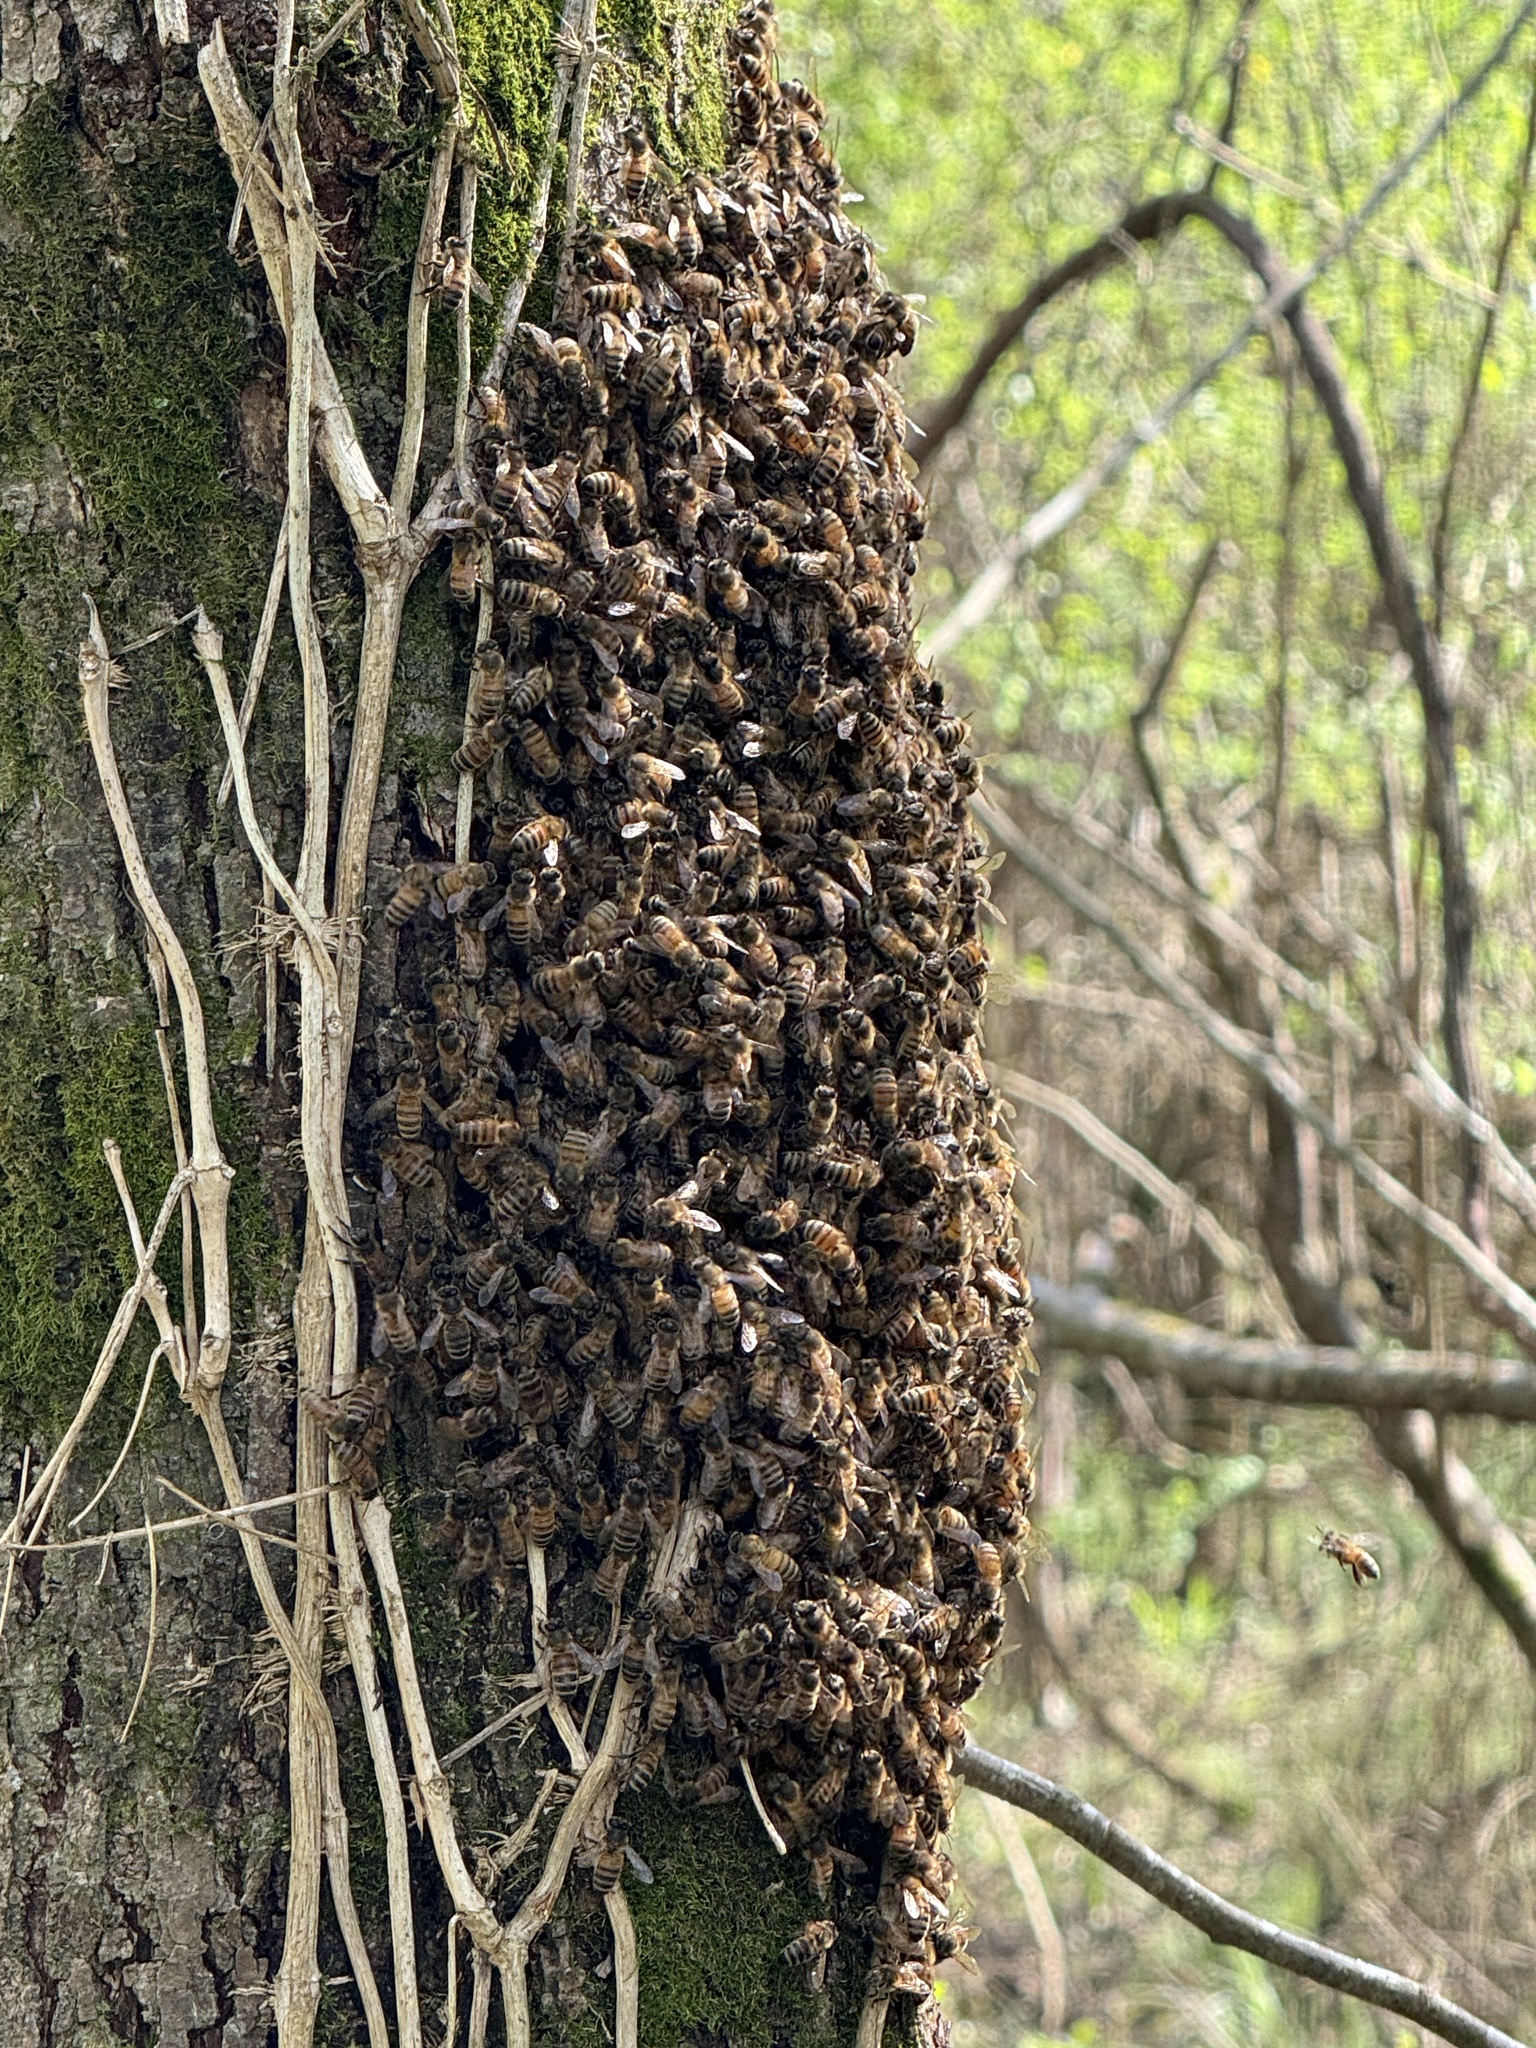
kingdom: Animalia
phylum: Arthropoda
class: Insecta
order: Hymenoptera
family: Apidae
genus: Apis
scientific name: Apis mellifera
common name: Honey bee
